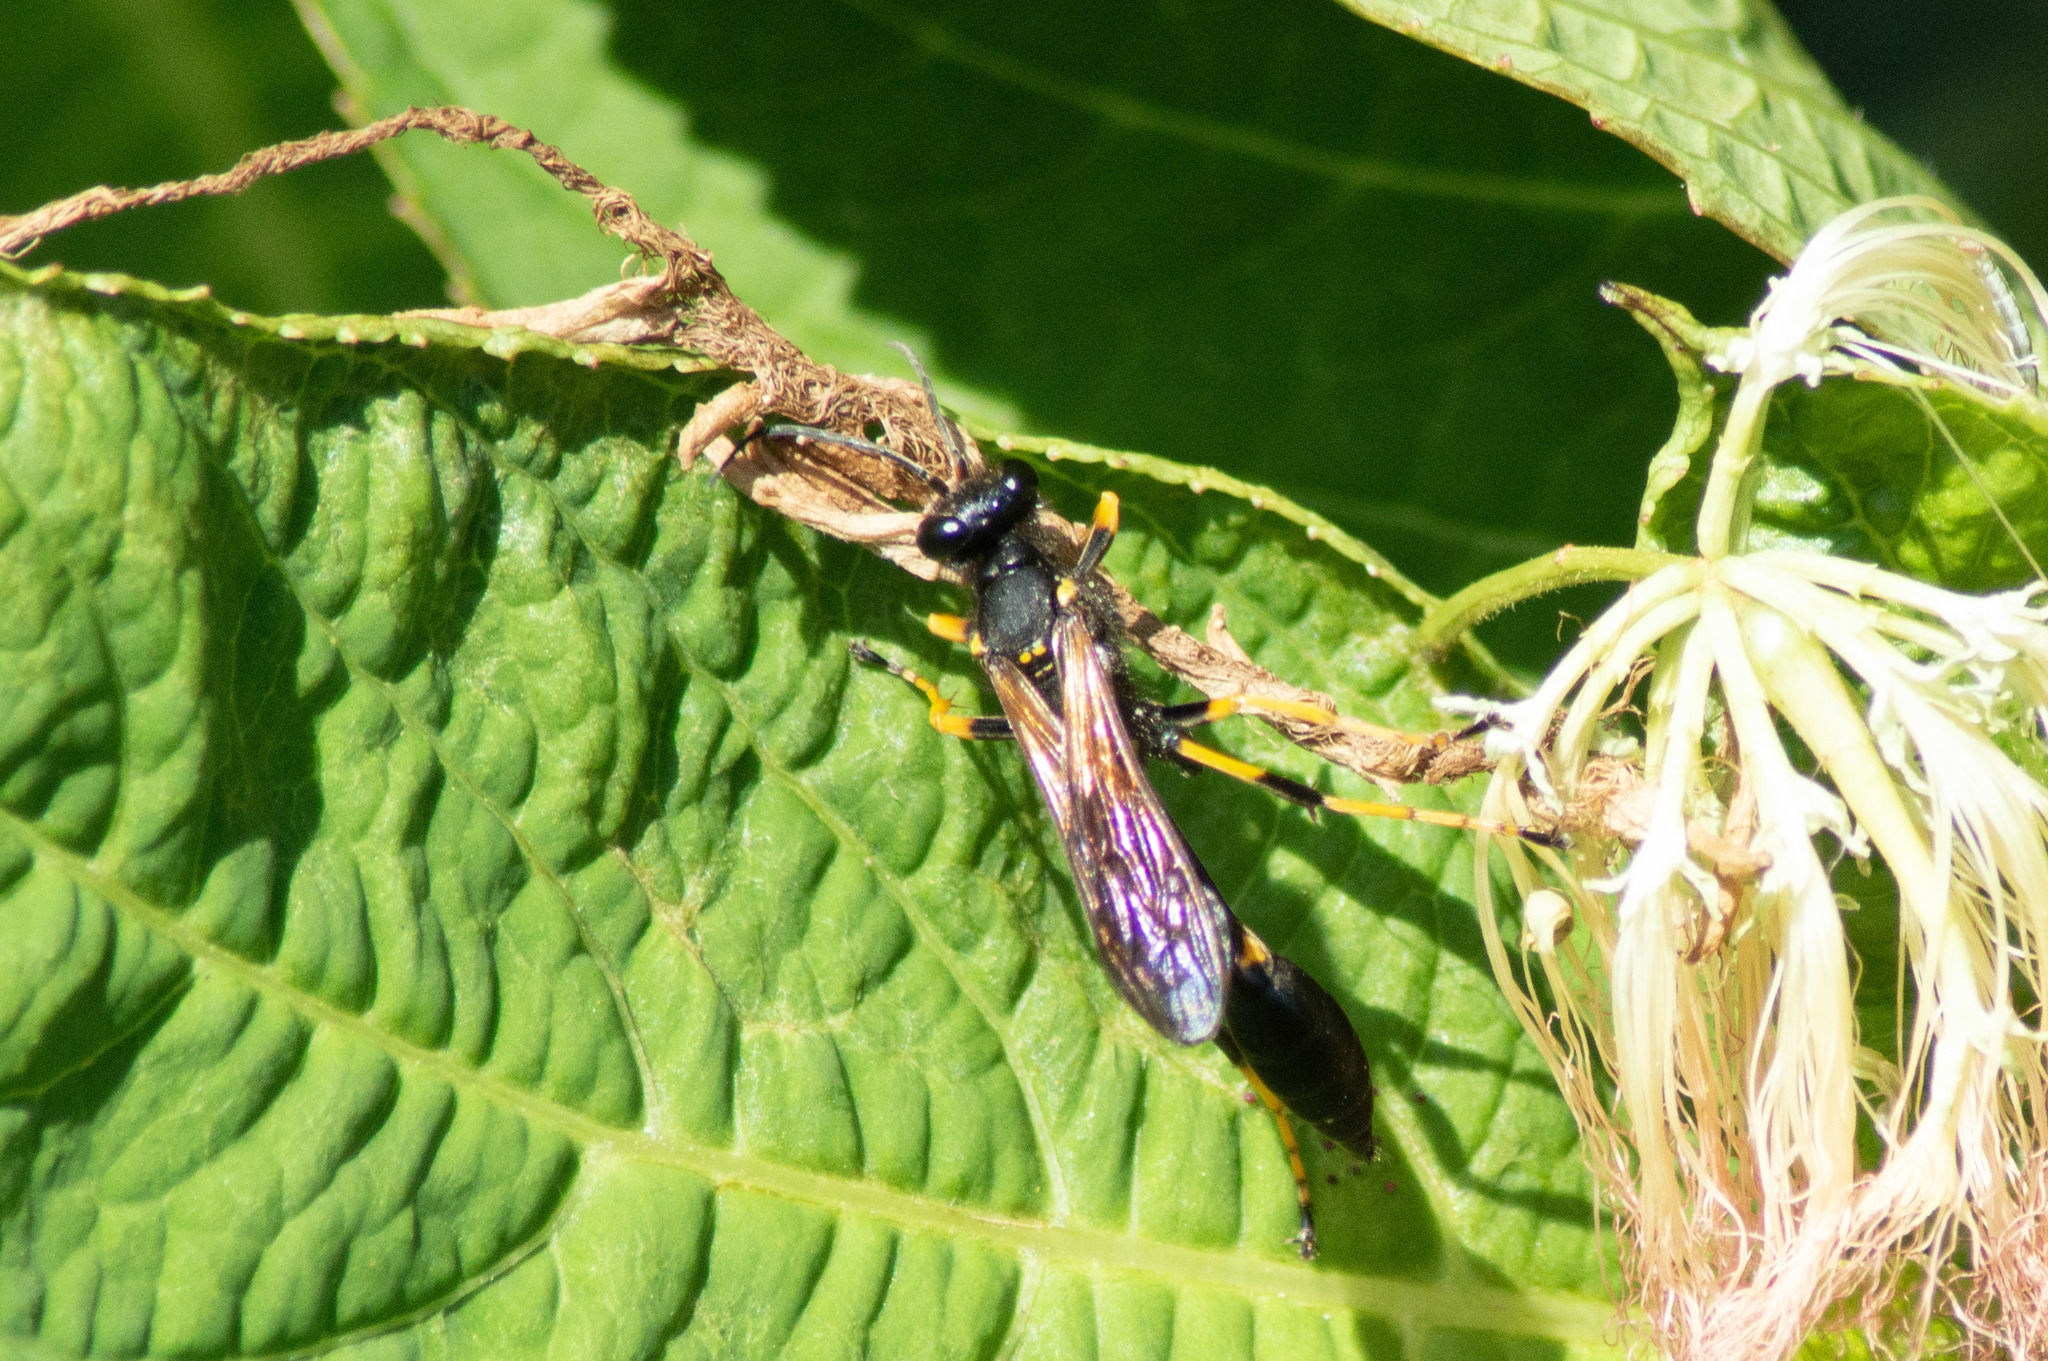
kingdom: Animalia
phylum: Arthropoda
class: Insecta
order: Hymenoptera
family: Sphecidae
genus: Sceliphron
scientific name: Sceliphron caementarium
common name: Mud dauber
